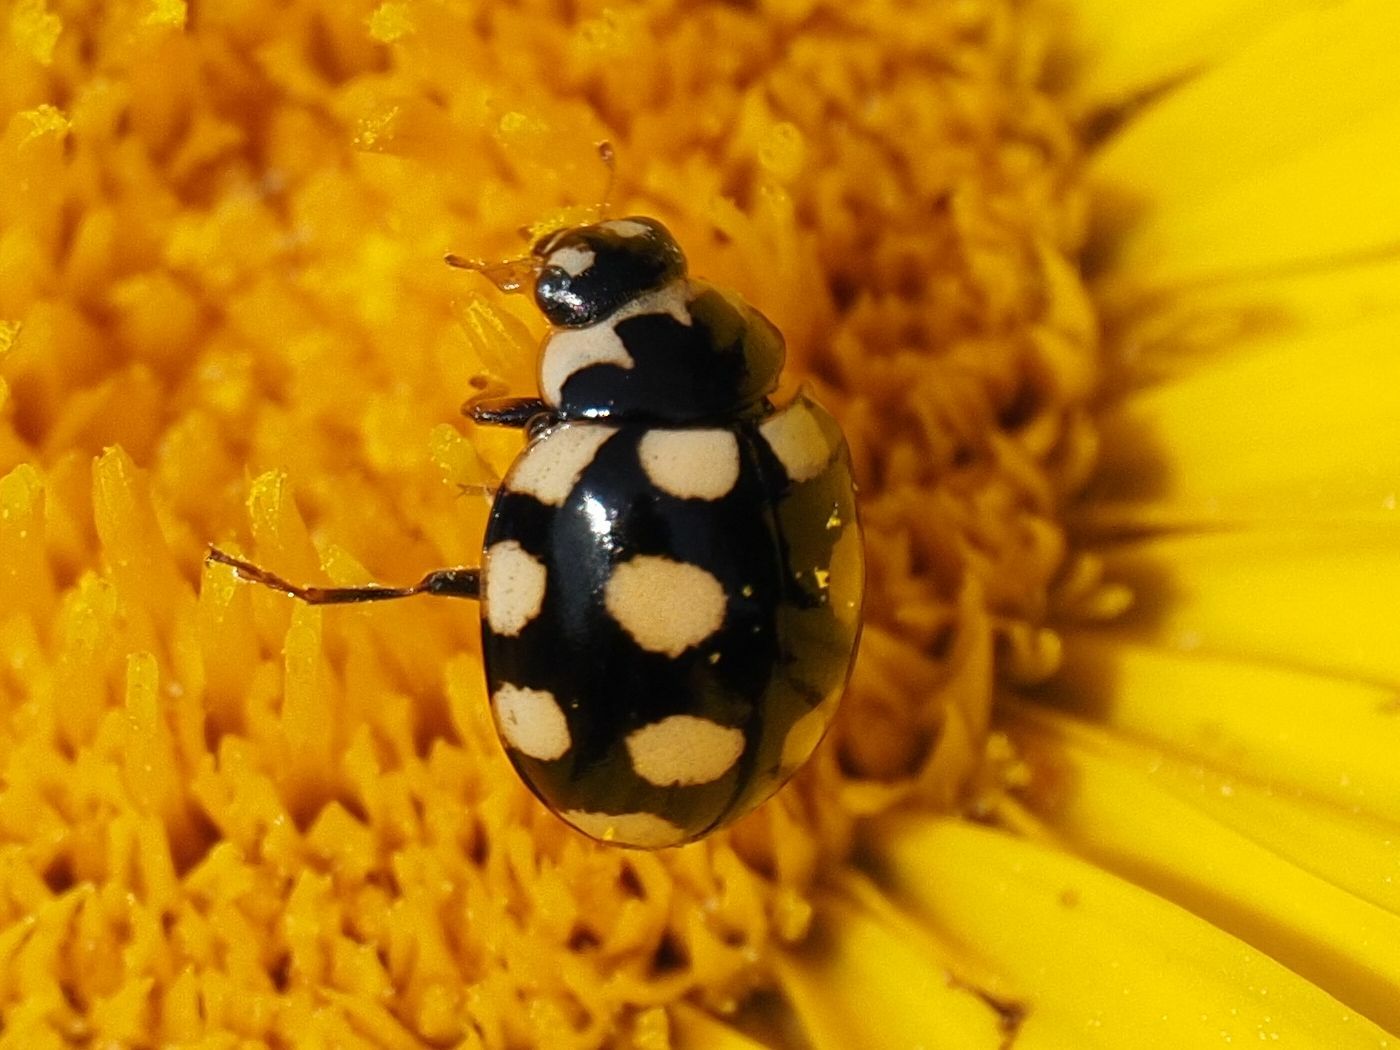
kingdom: Animalia
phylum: Arthropoda
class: Insecta
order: Coleoptera
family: Coccinellidae
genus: Coccinula
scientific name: Coccinula quatuordecimpustulata
